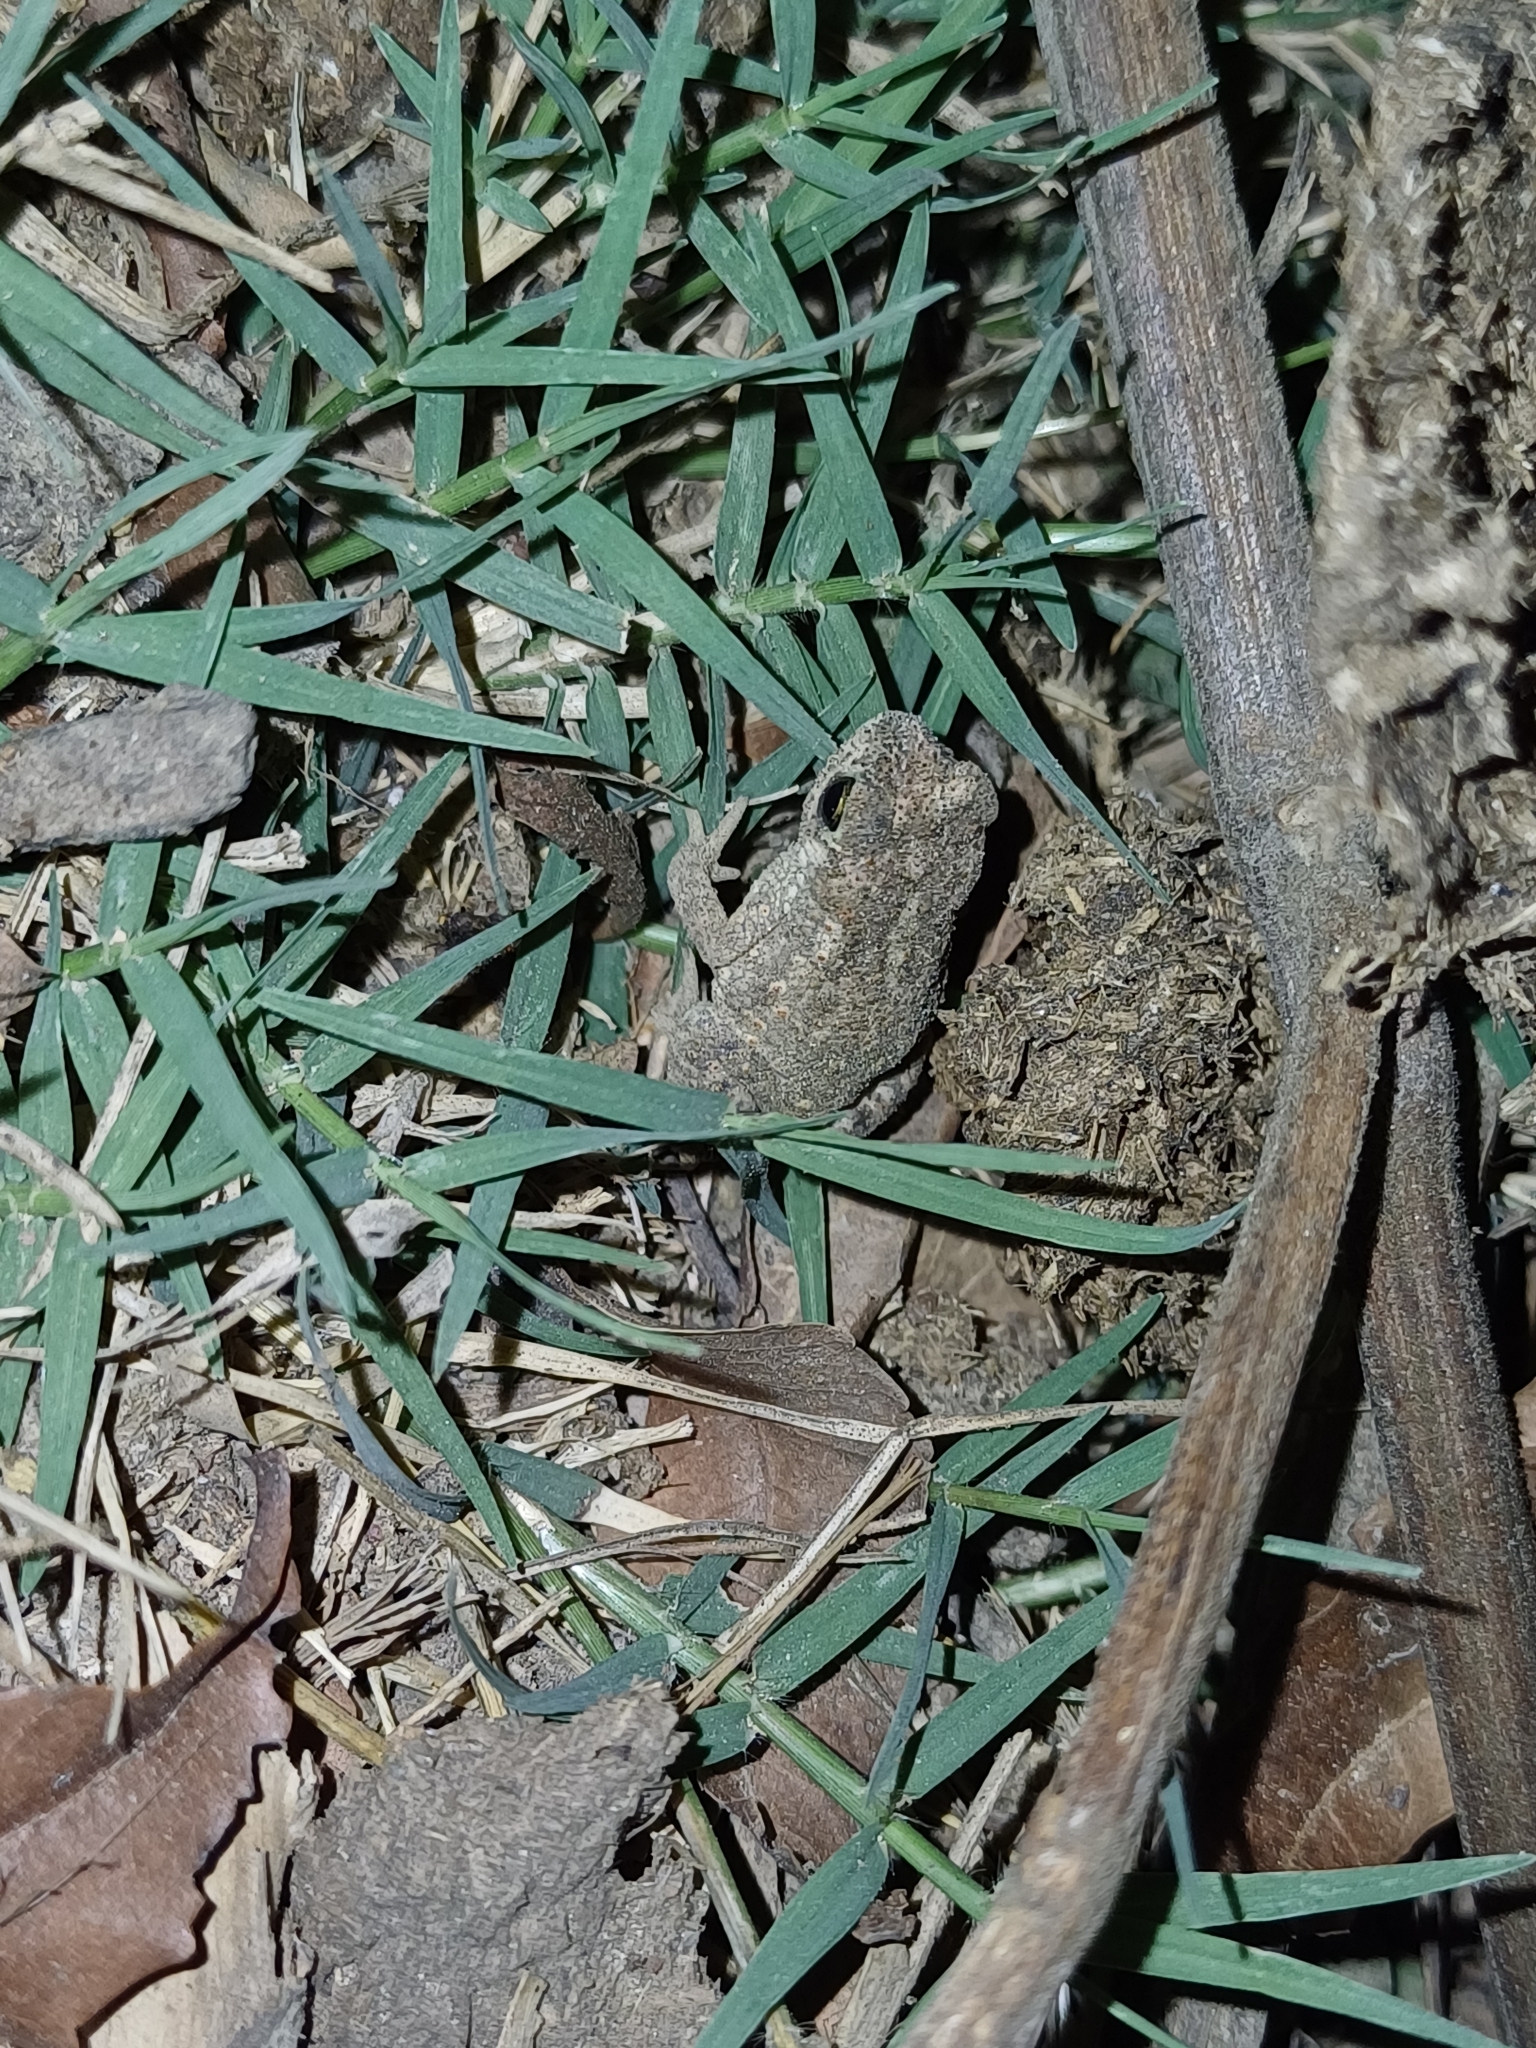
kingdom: Animalia
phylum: Chordata
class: Amphibia
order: Anura
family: Bufonidae
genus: Duttaphrynus
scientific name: Duttaphrynus scaber
